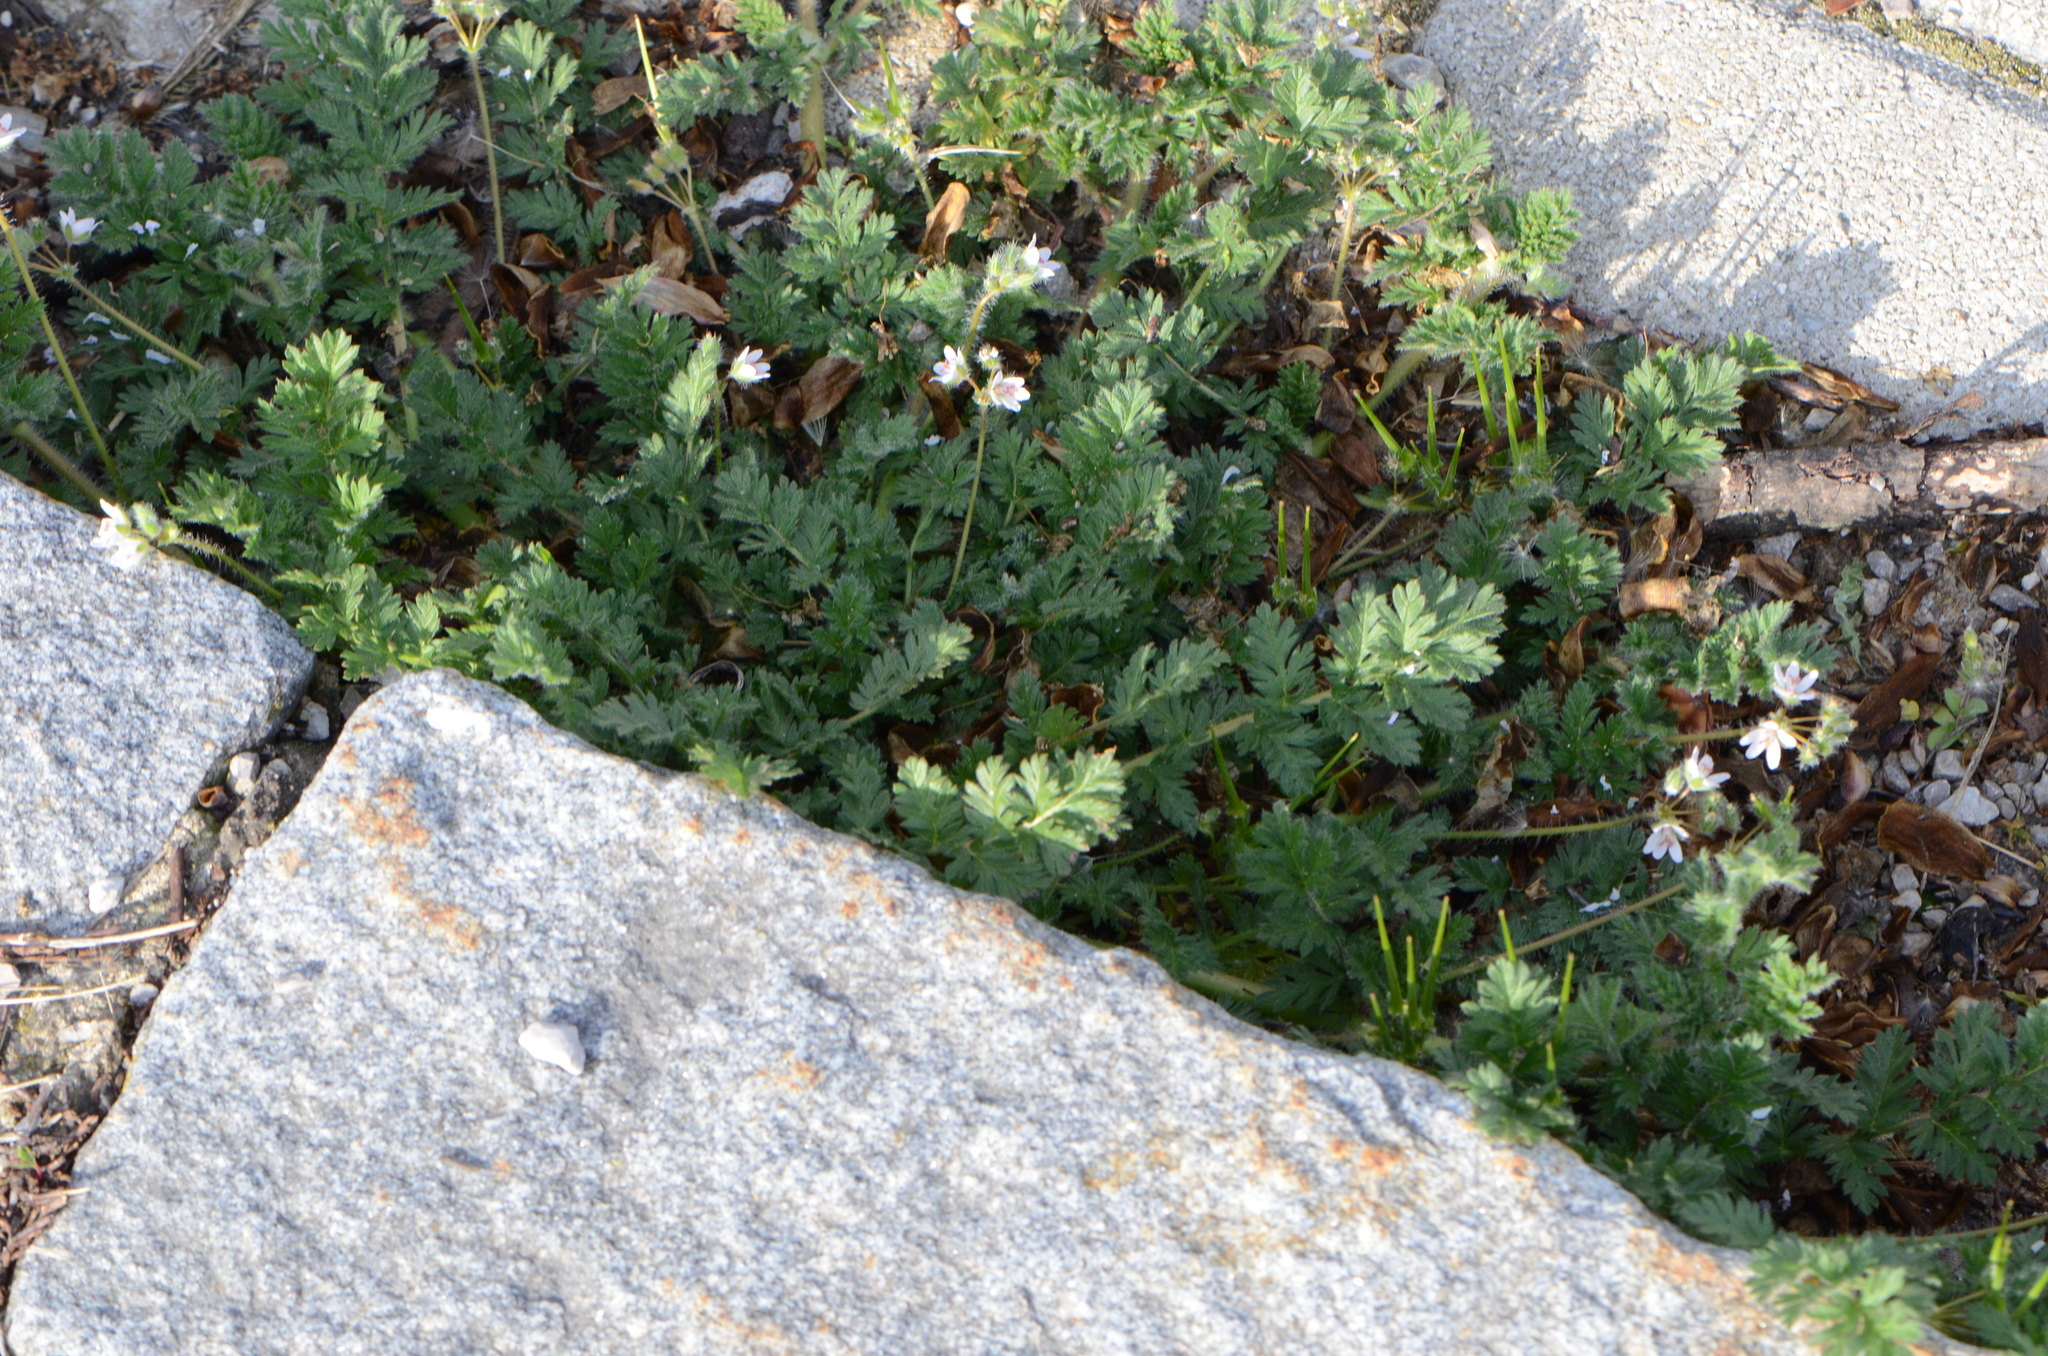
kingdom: Plantae
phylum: Tracheophyta
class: Magnoliopsida
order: Geraniales
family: Geraniaceae
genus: Erodium
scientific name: Erodium cicutarium
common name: Common stork's-bill
